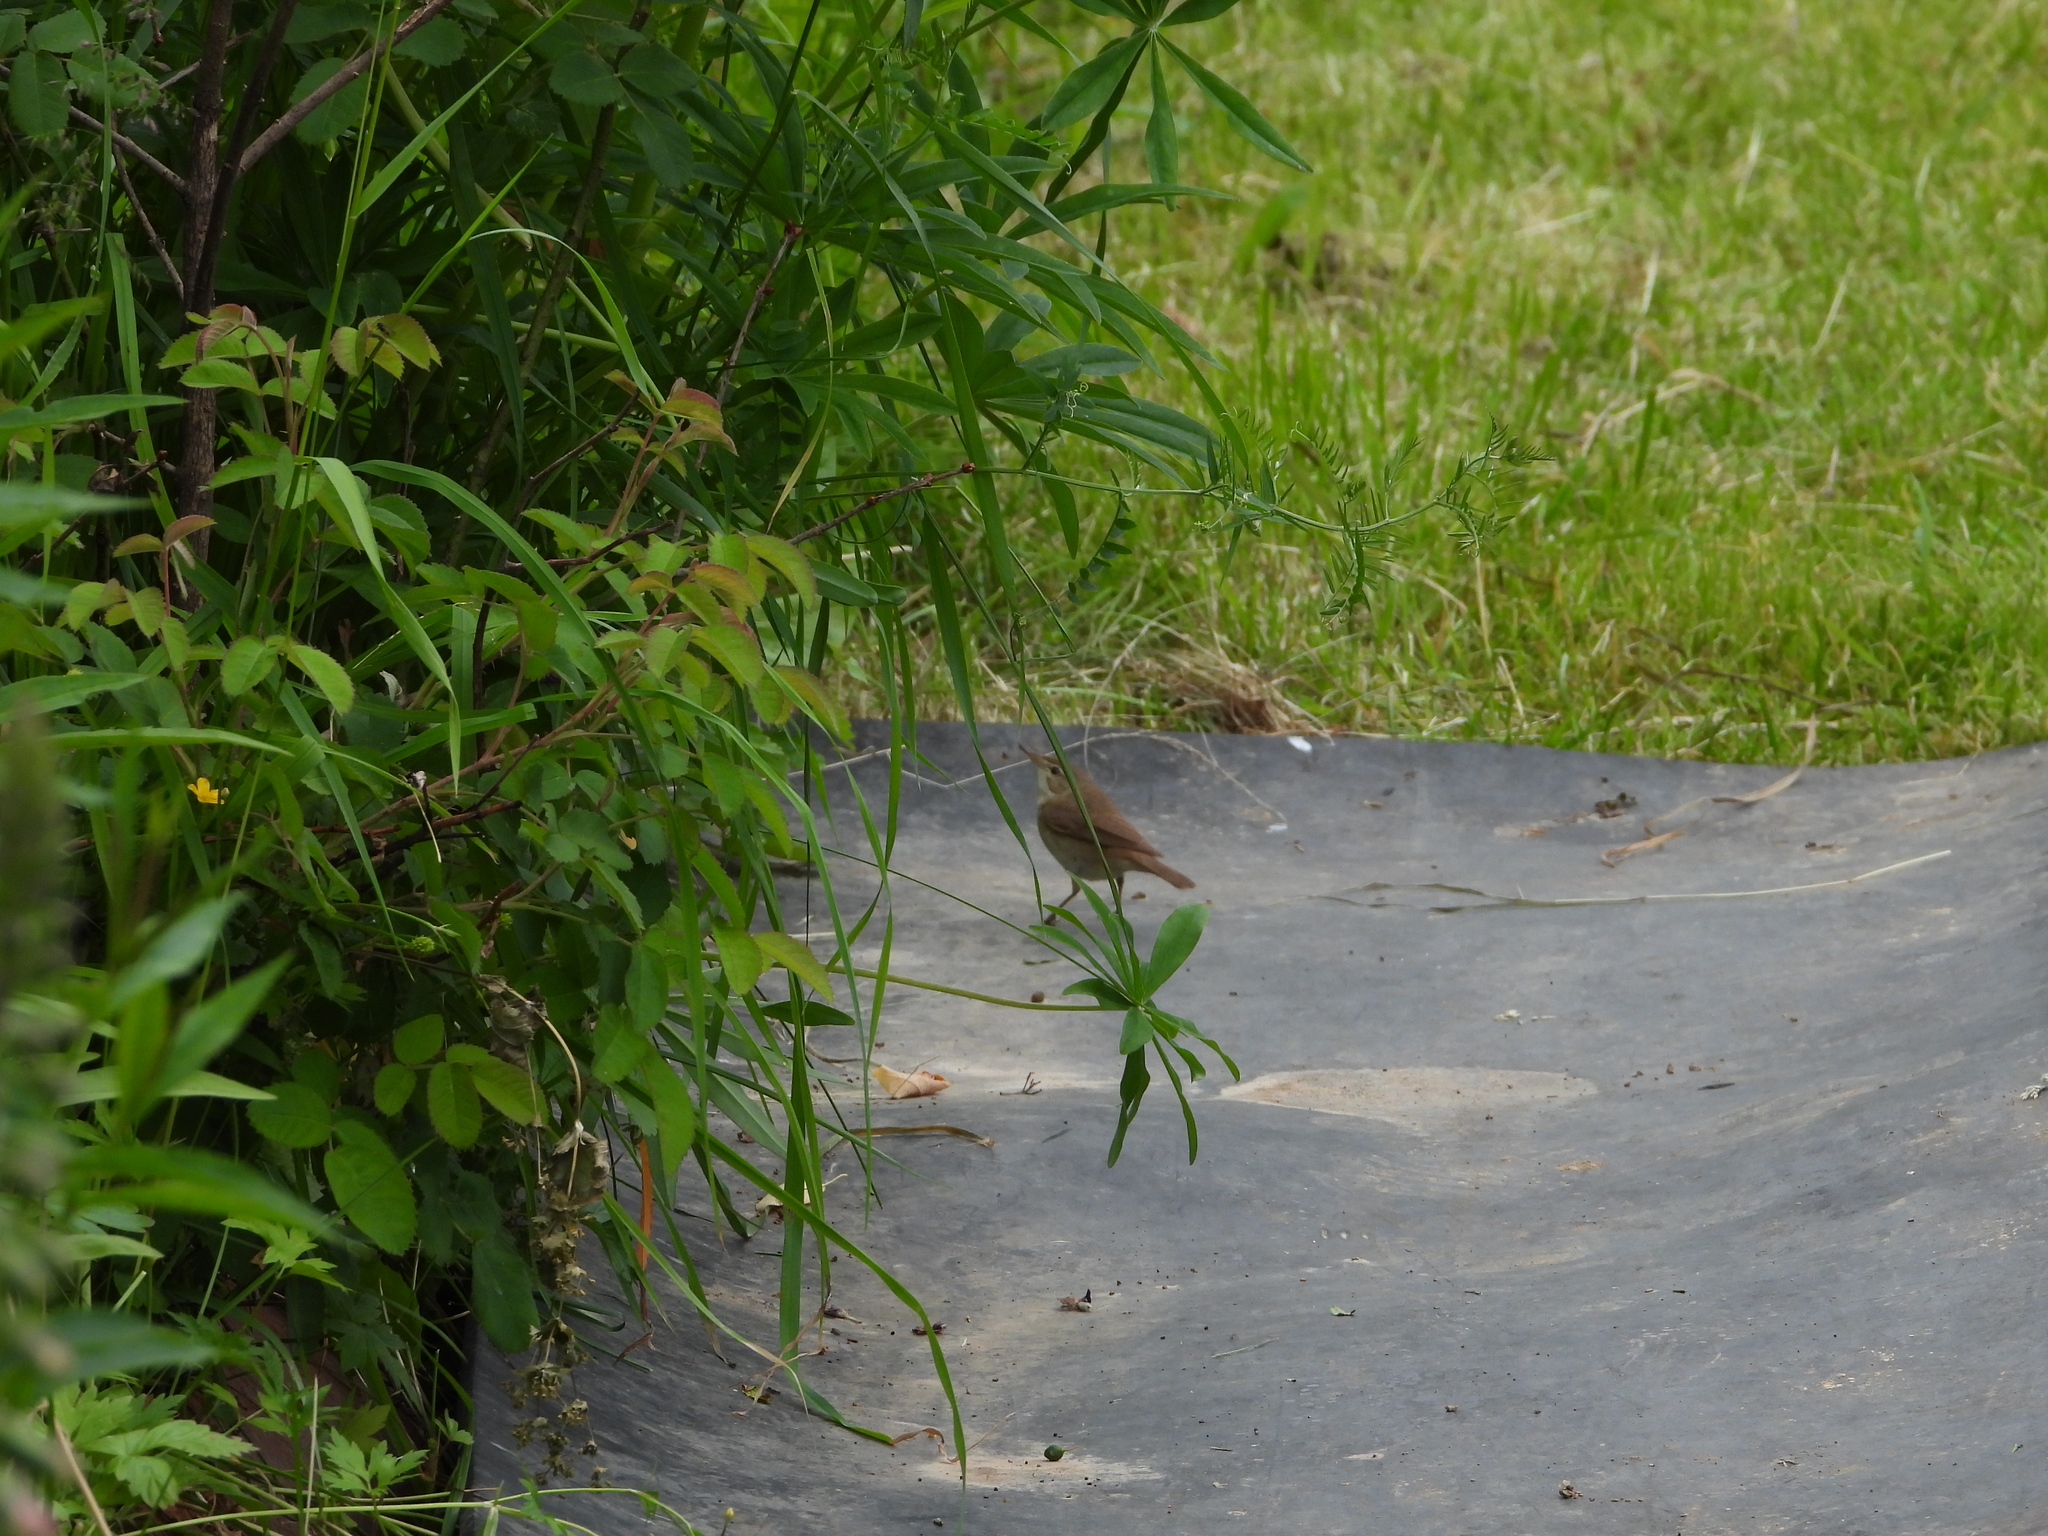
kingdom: Animalia
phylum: Chordata
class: Aves
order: Passeriformes
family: Acrocephalidae
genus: Acrocephalus
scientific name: Acrocephalus dumetorum
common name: Blyth's reed warbler
